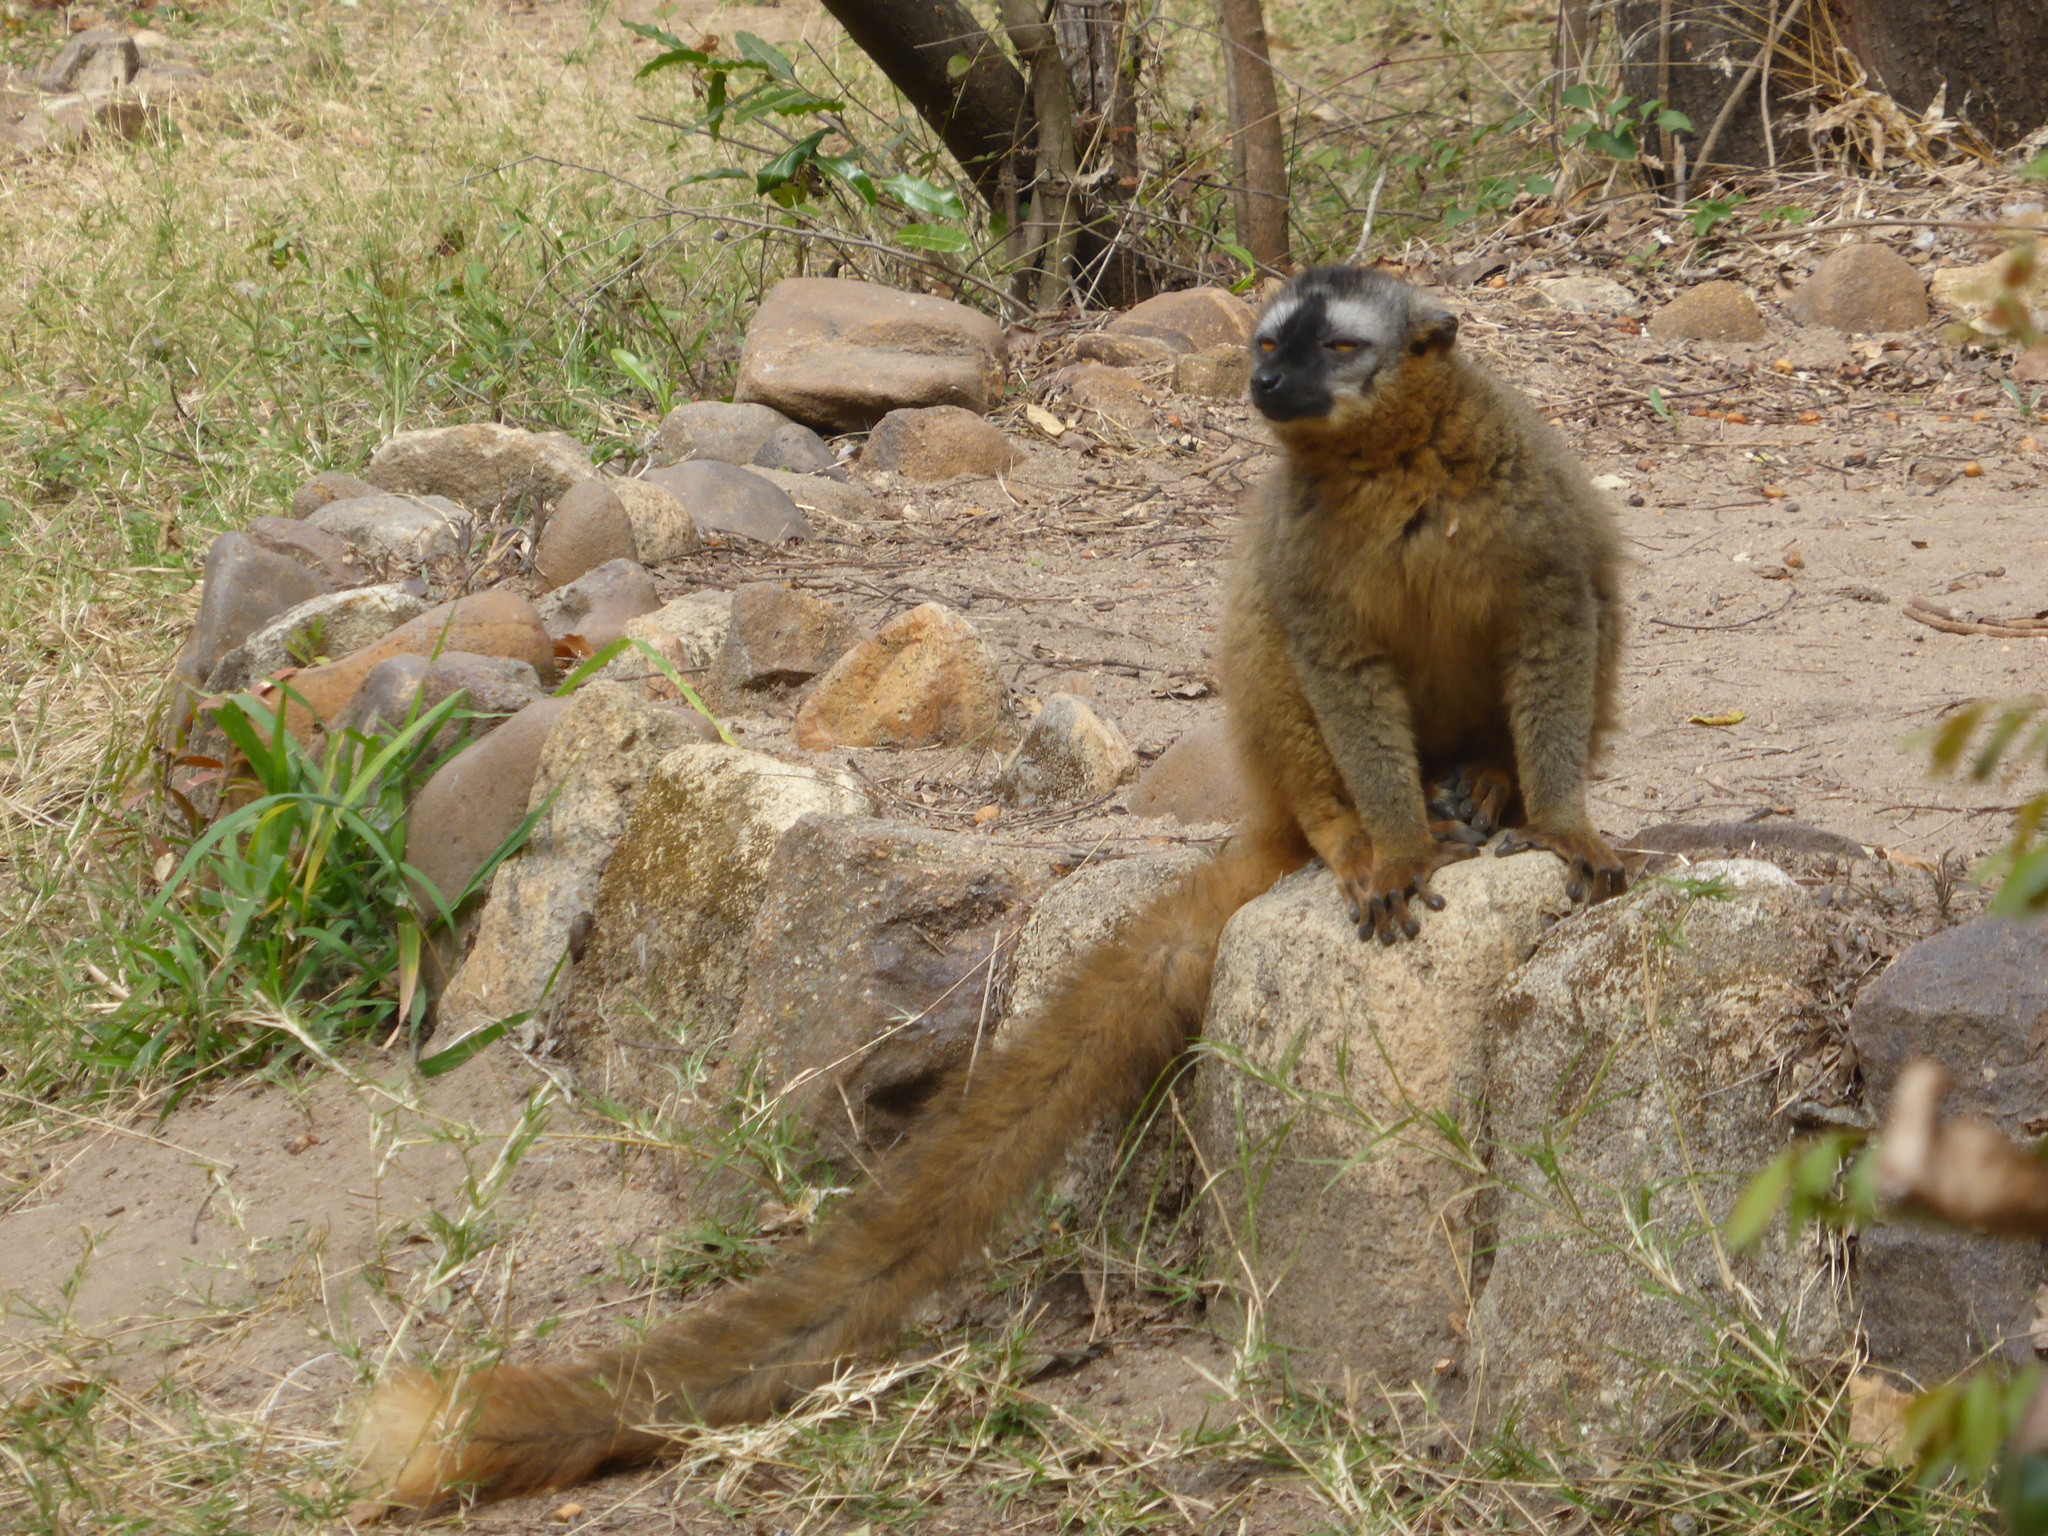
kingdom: Animalia
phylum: Chordata
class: Mammalia
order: Primates
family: Lemuridae
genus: Eulemur
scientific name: Eulemur rufifrons
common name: Red-fronted brown lemur
